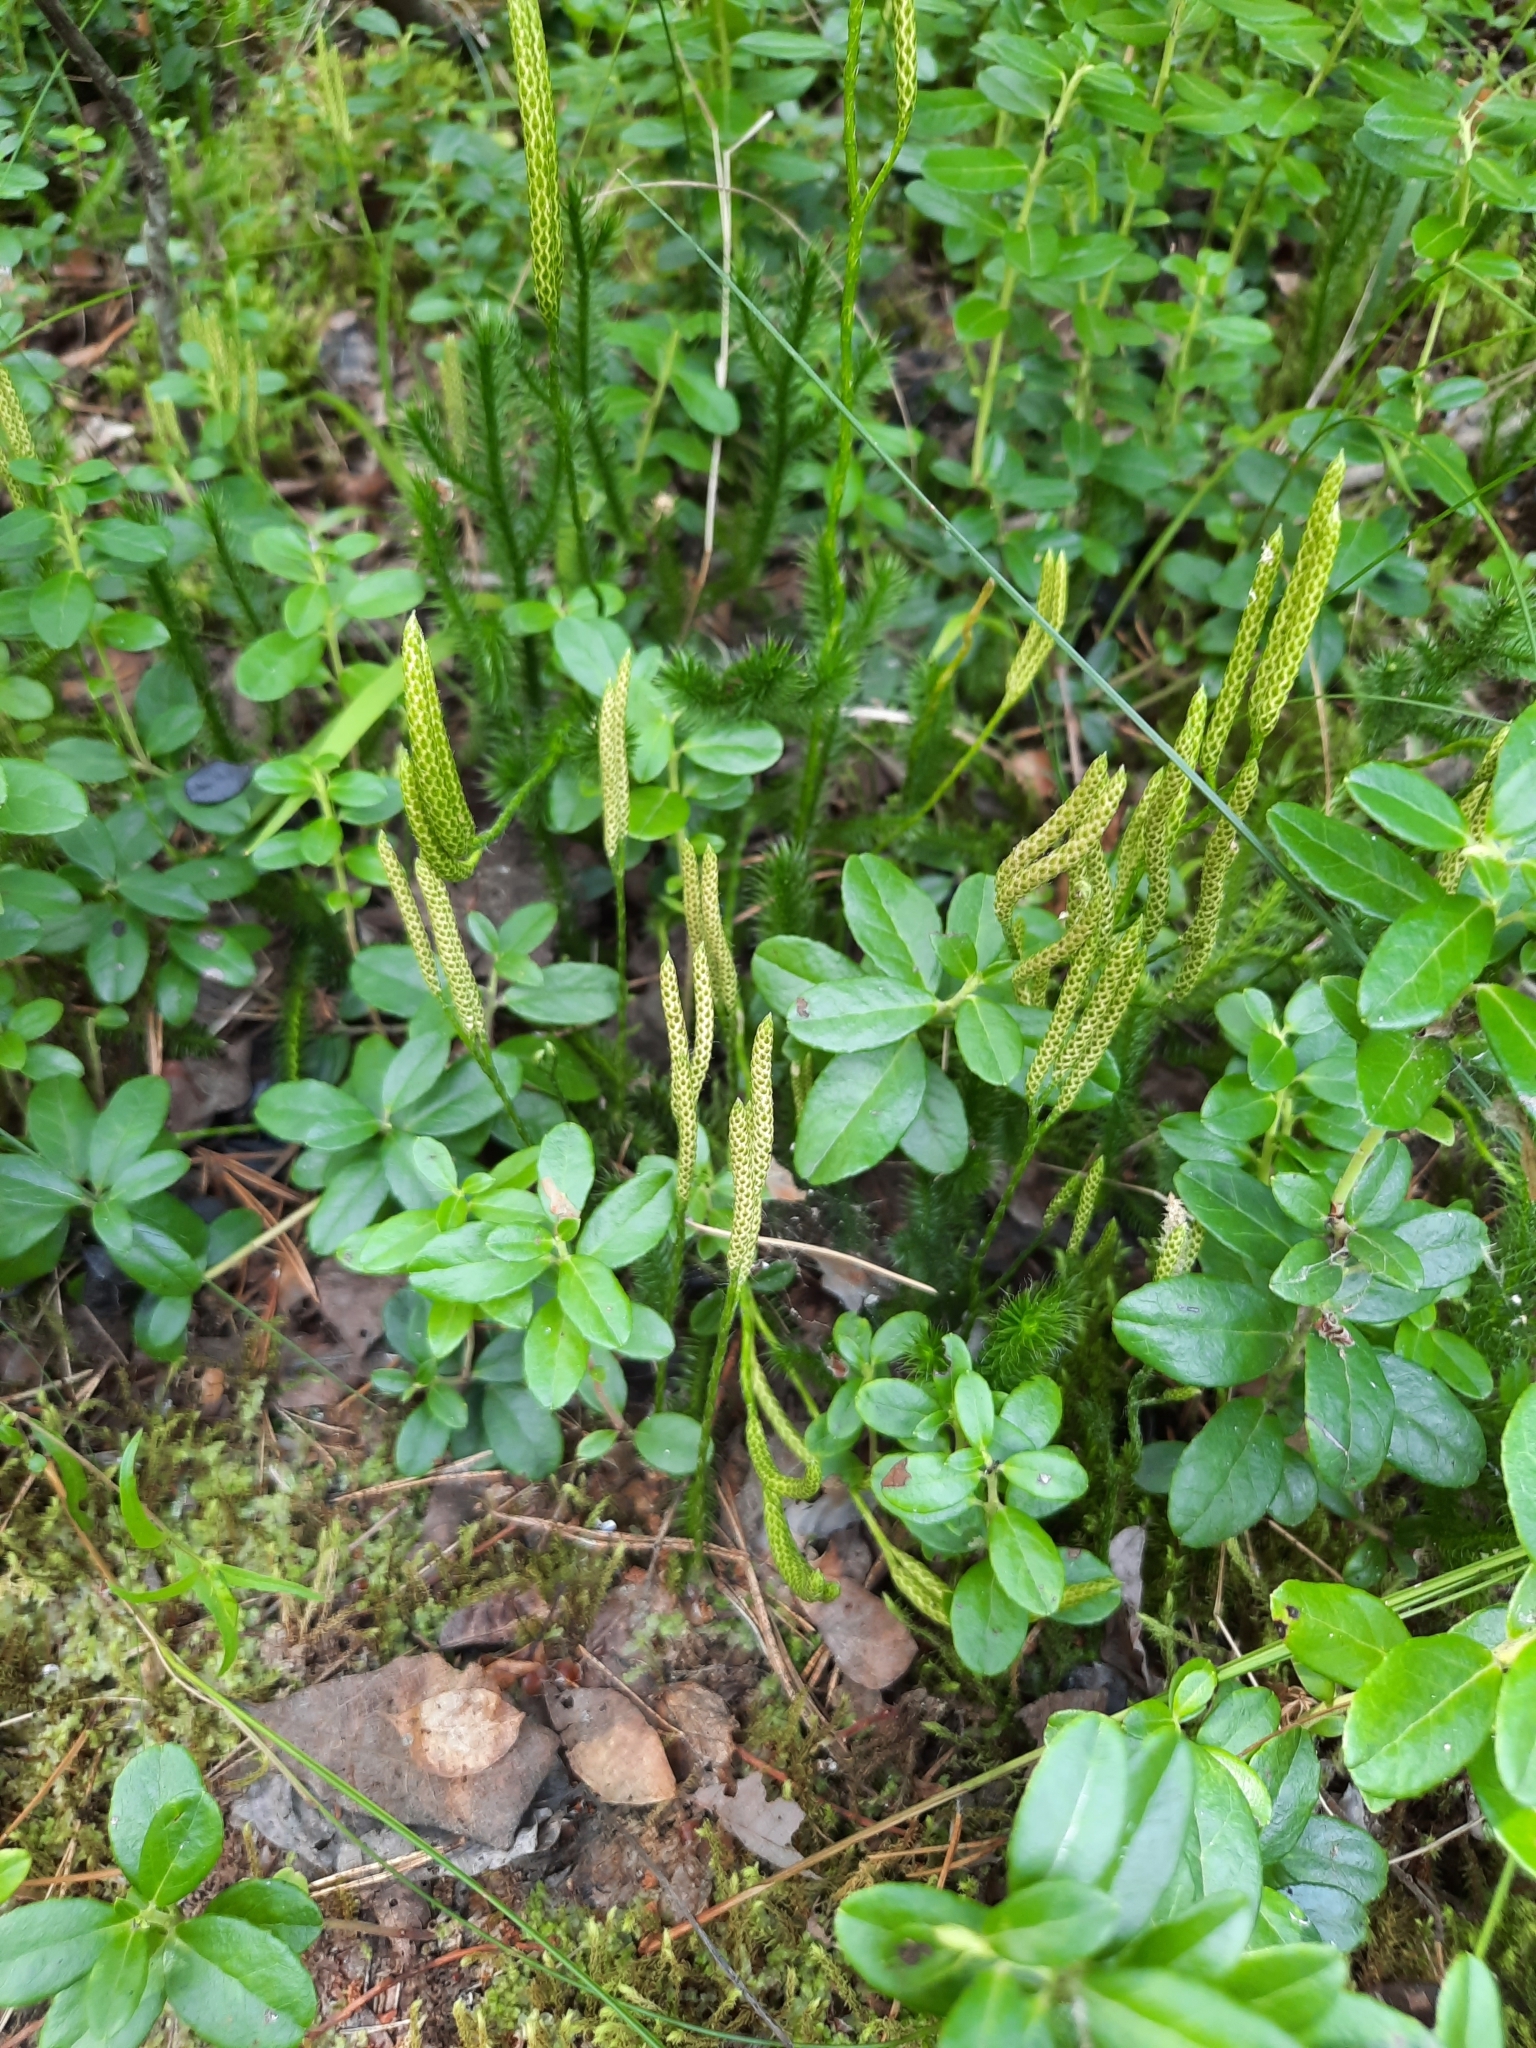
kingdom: Plantae
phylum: Tracheophyta
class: Lycopodiopsida
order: Lycopodiales
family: Lycopodiaceae
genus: Lycopodium
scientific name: Lycopodium clavatum
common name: Stag's-horn clubmoss
